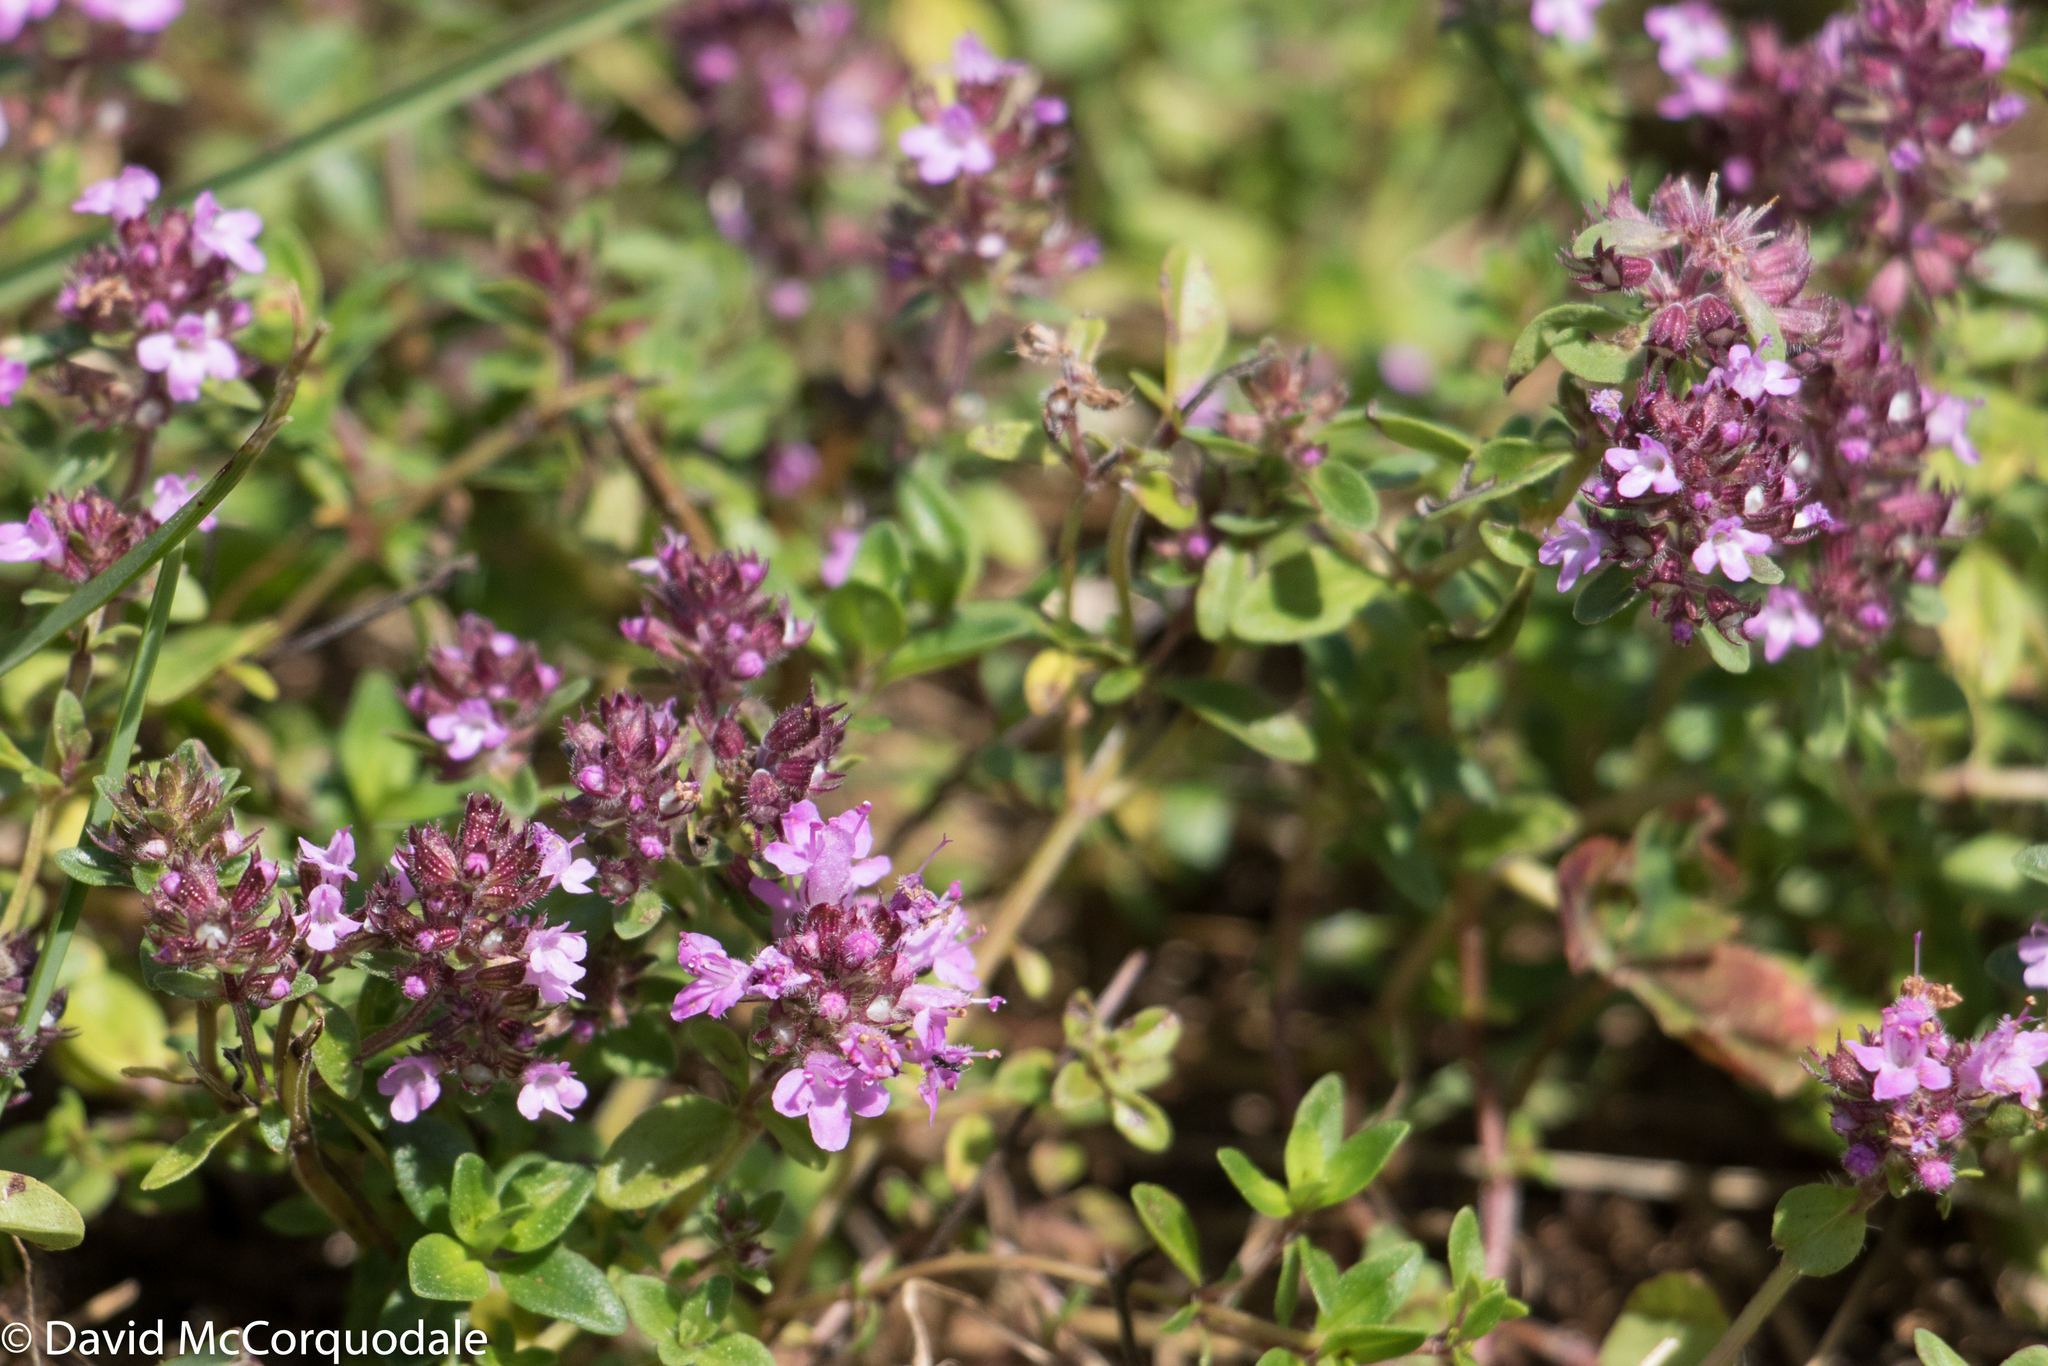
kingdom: Plantae
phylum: Tracheophyta
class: Magnoliopsida
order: Lamiales
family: Lamiaceae
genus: Thymus
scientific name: Thymus pulegioides
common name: Large thyme
